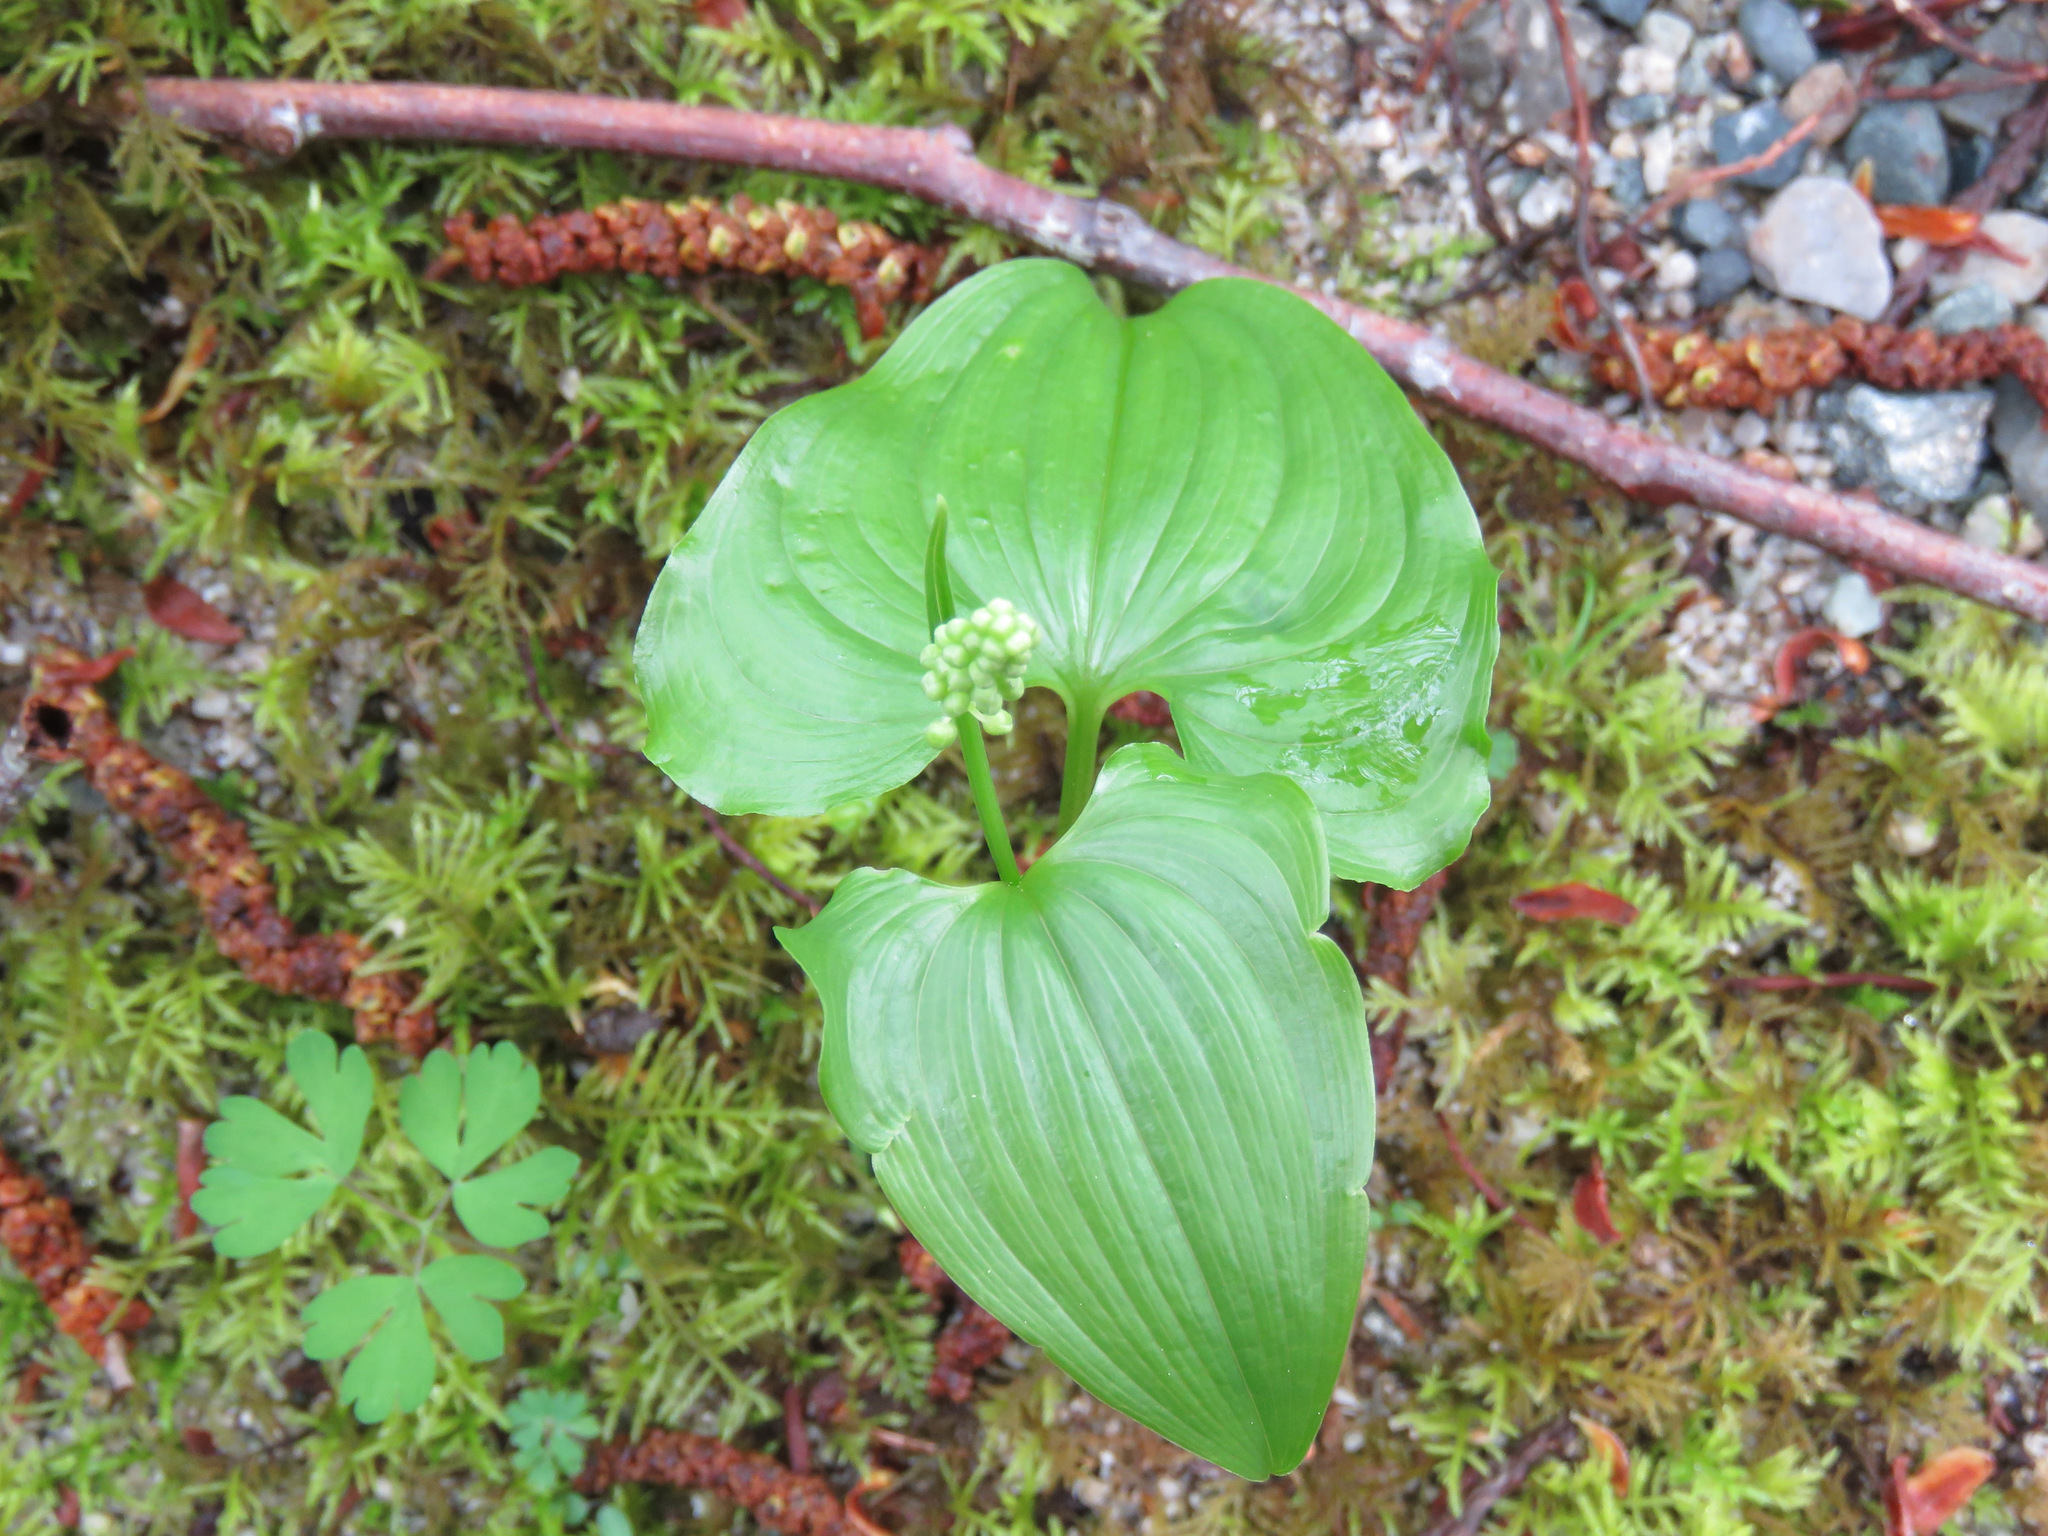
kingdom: Plantae
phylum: Tracheophyta
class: Liliopsida
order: Asparagales
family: Asparagaceae
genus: Maianthemum
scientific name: Maianthemum dilatatum
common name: False lily-of-the-valley
